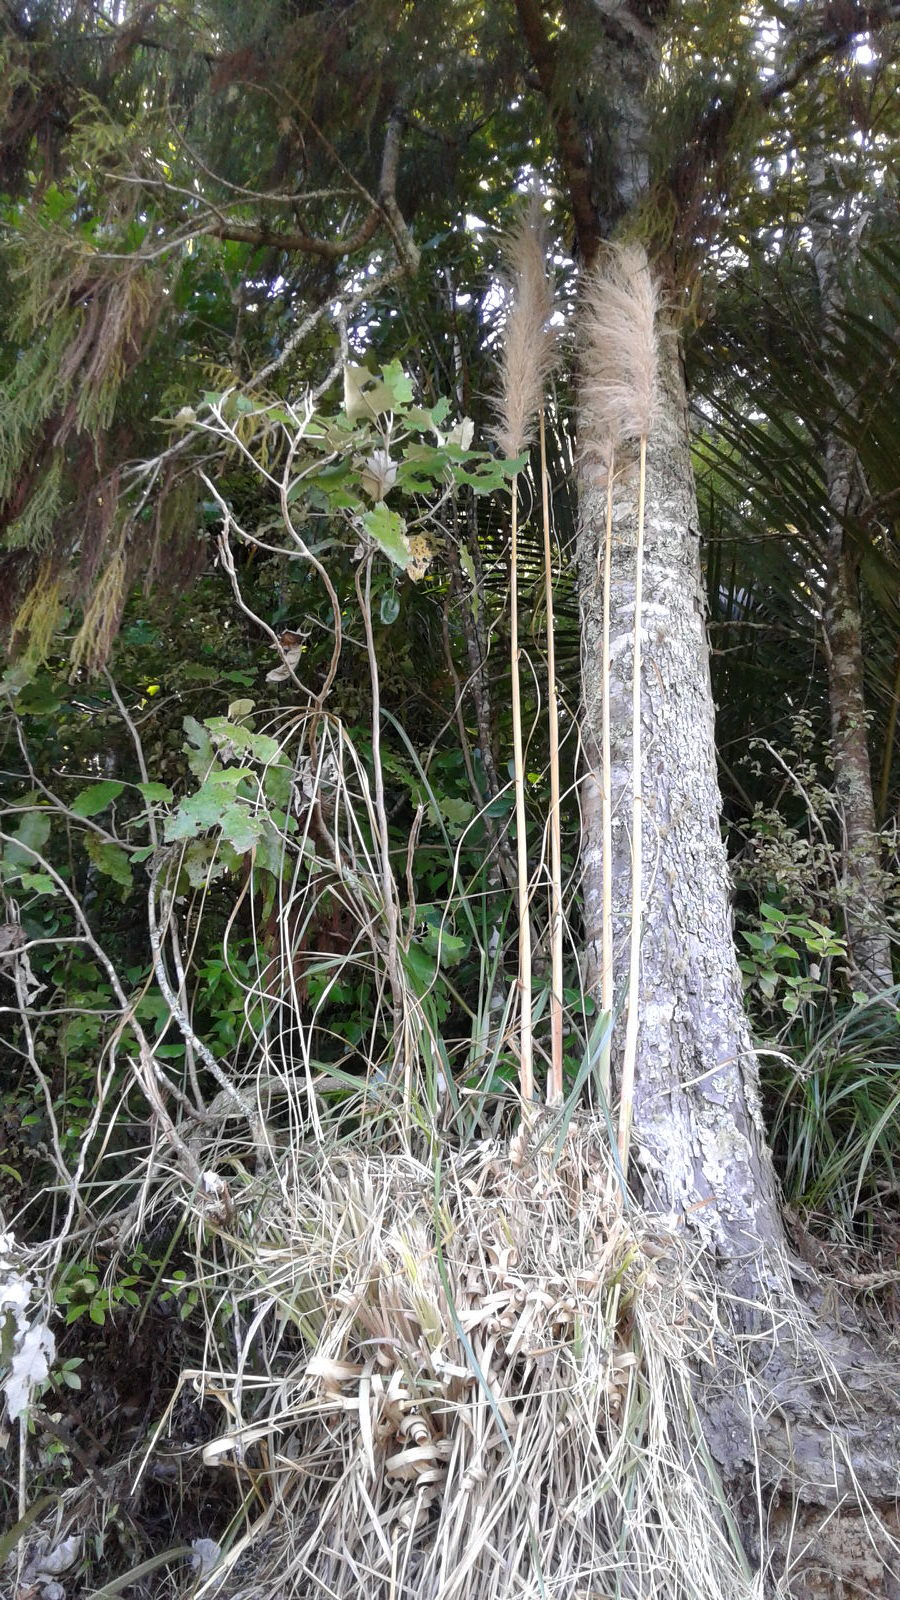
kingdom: Plantae
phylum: Tracheophyta
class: Liliopsida
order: Poales
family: Poaceae
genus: Cortaderia
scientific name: Cortaderia selloana
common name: Uruguayan pampas grass
